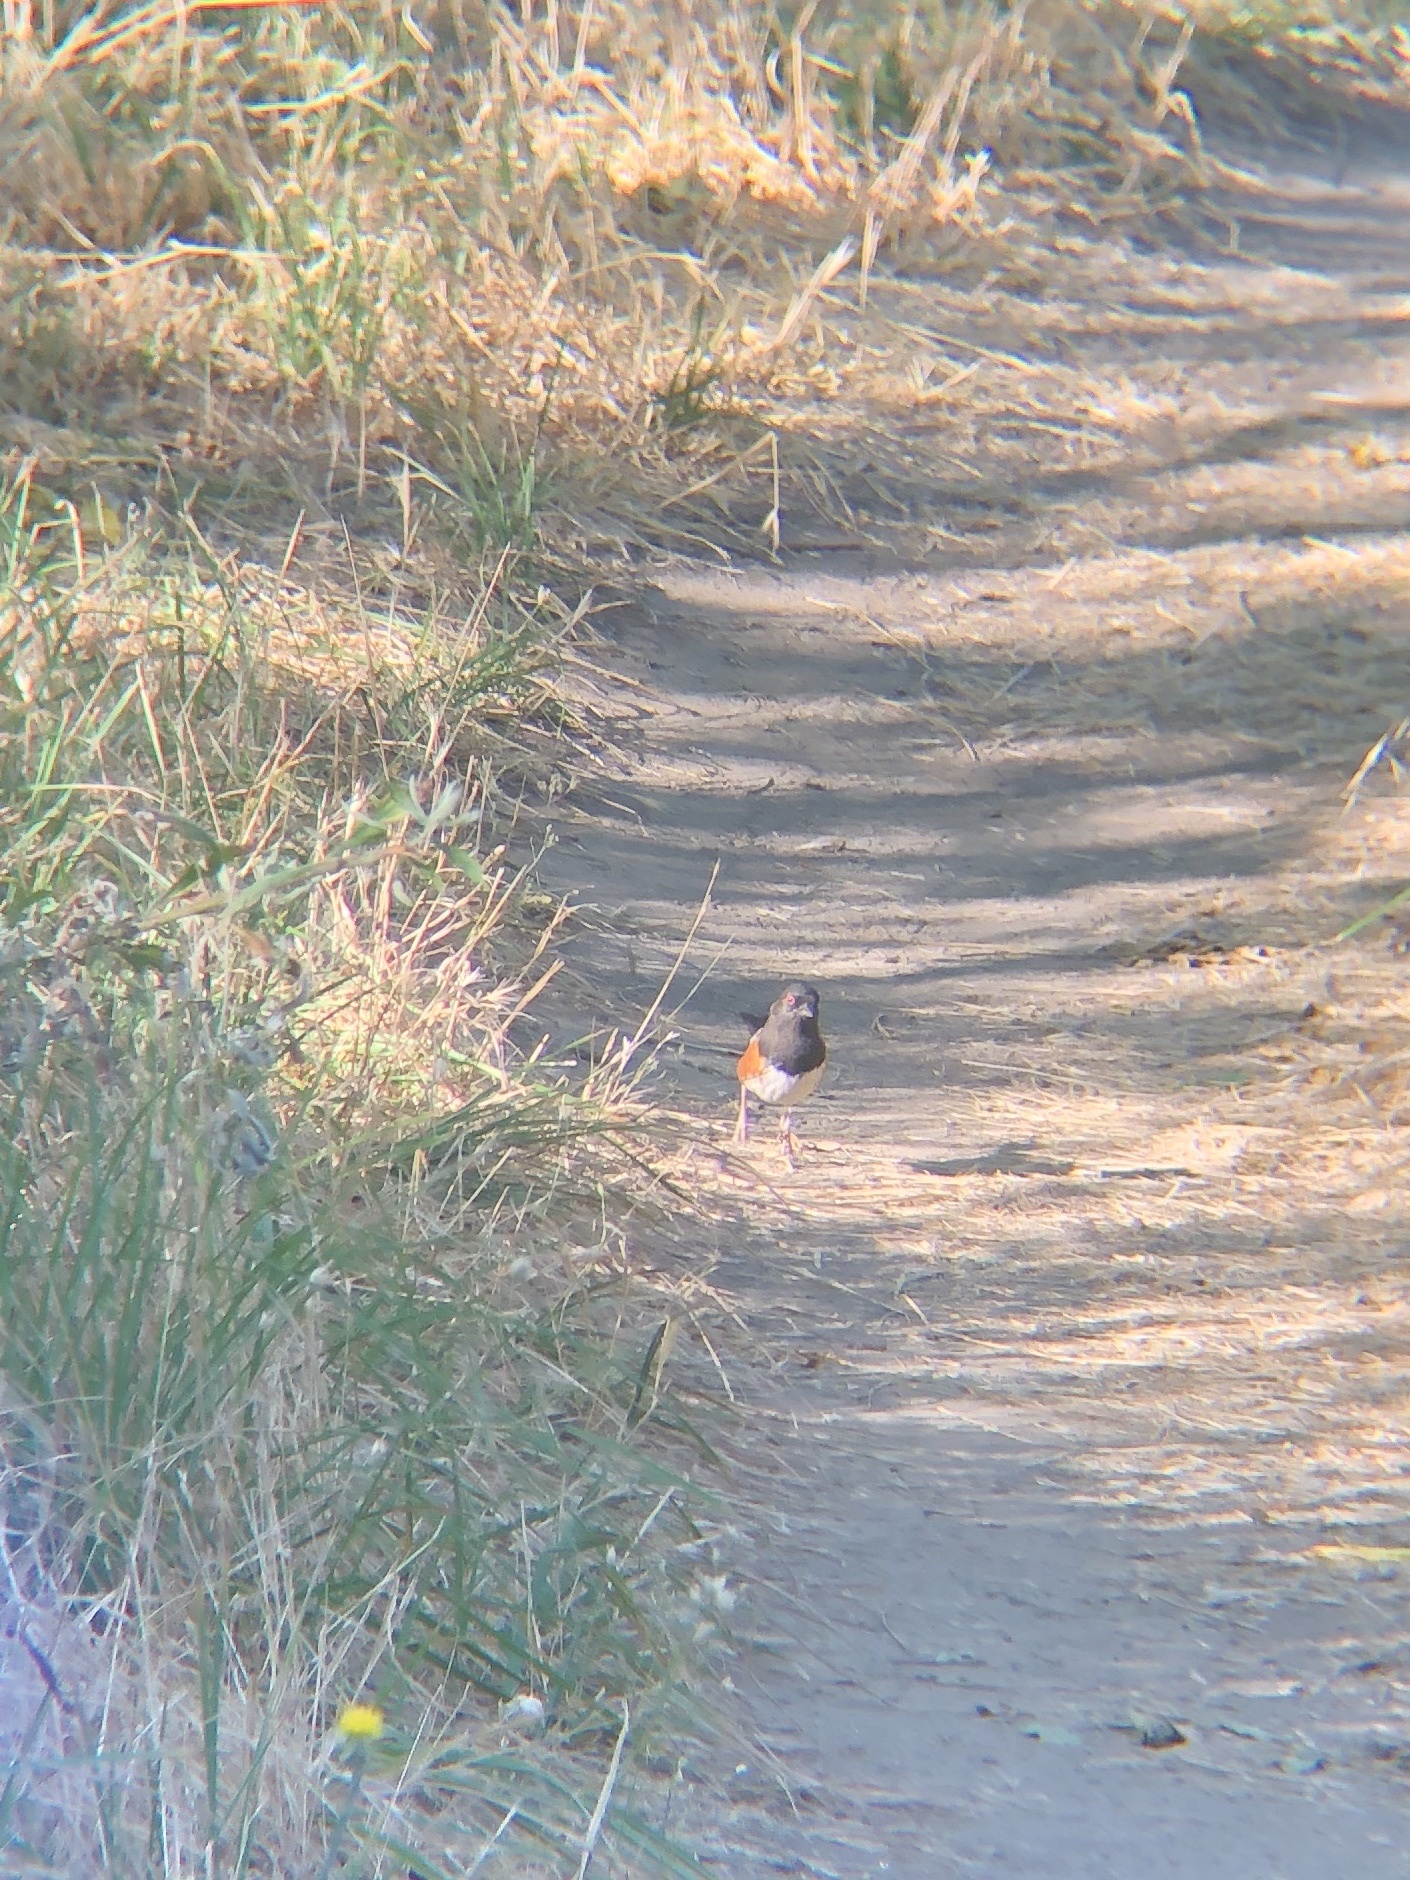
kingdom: Animalia
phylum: Chordata
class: Aves
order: Passeriformes
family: Passerellidae
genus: Pipilo
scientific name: Pipilo maculatus
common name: Spotted towhee
